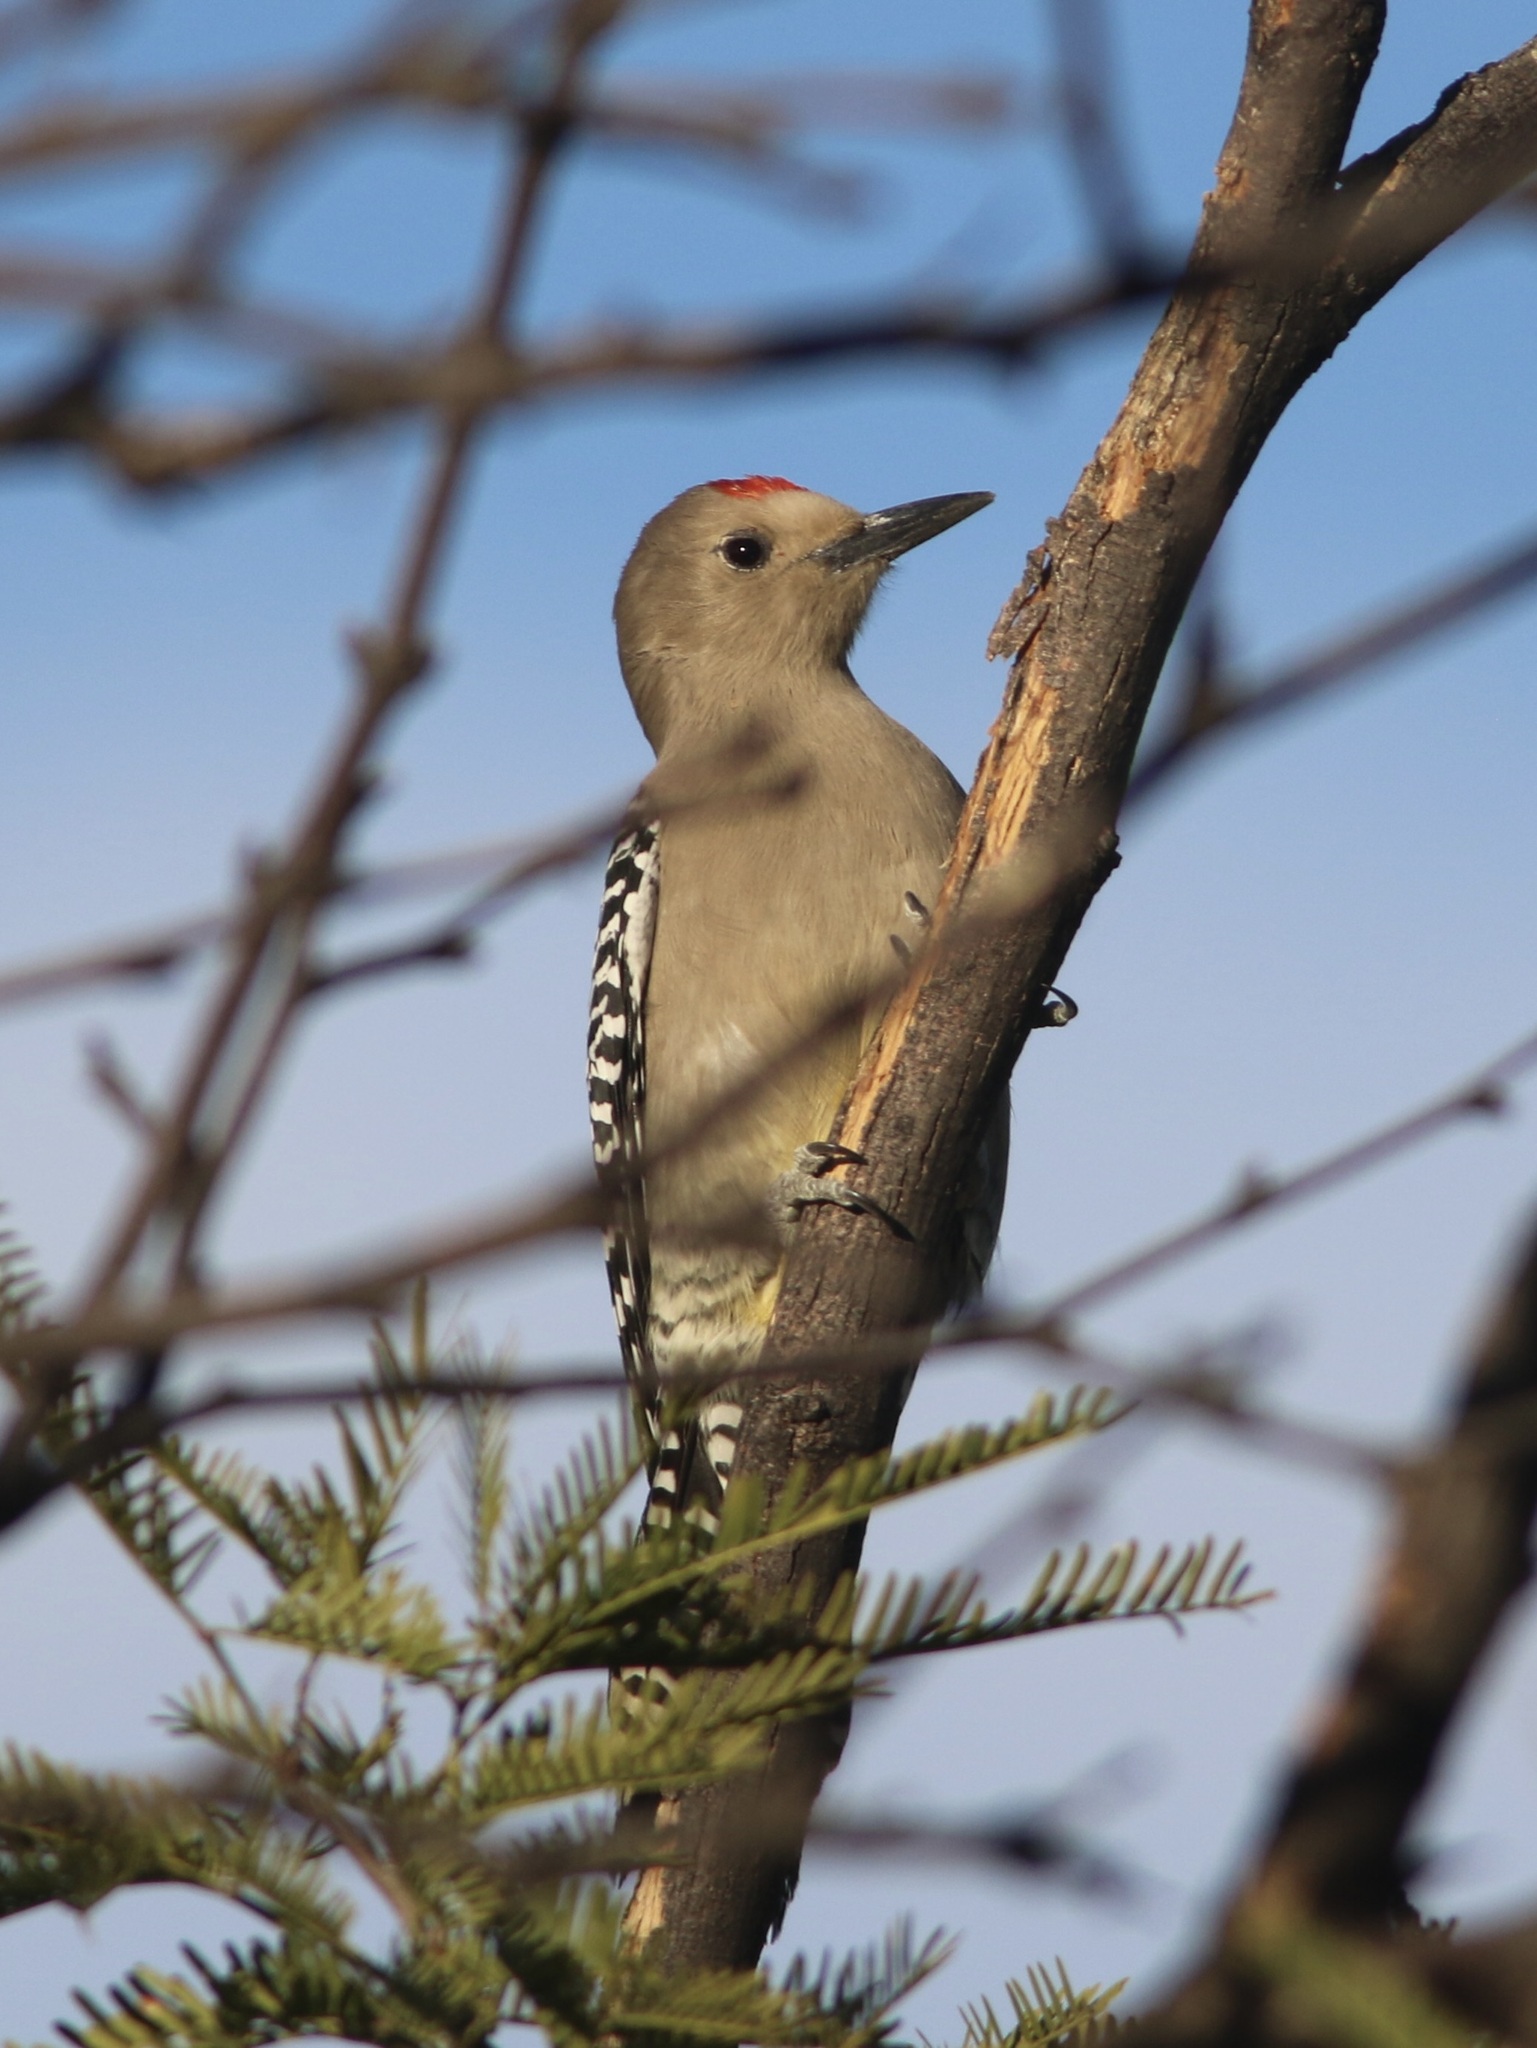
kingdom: Animalia
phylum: Chordata
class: Aves
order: Piciformes
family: Picidae
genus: Melanerpes
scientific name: Melanerpes uropygialis
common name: Gila woodpecker
